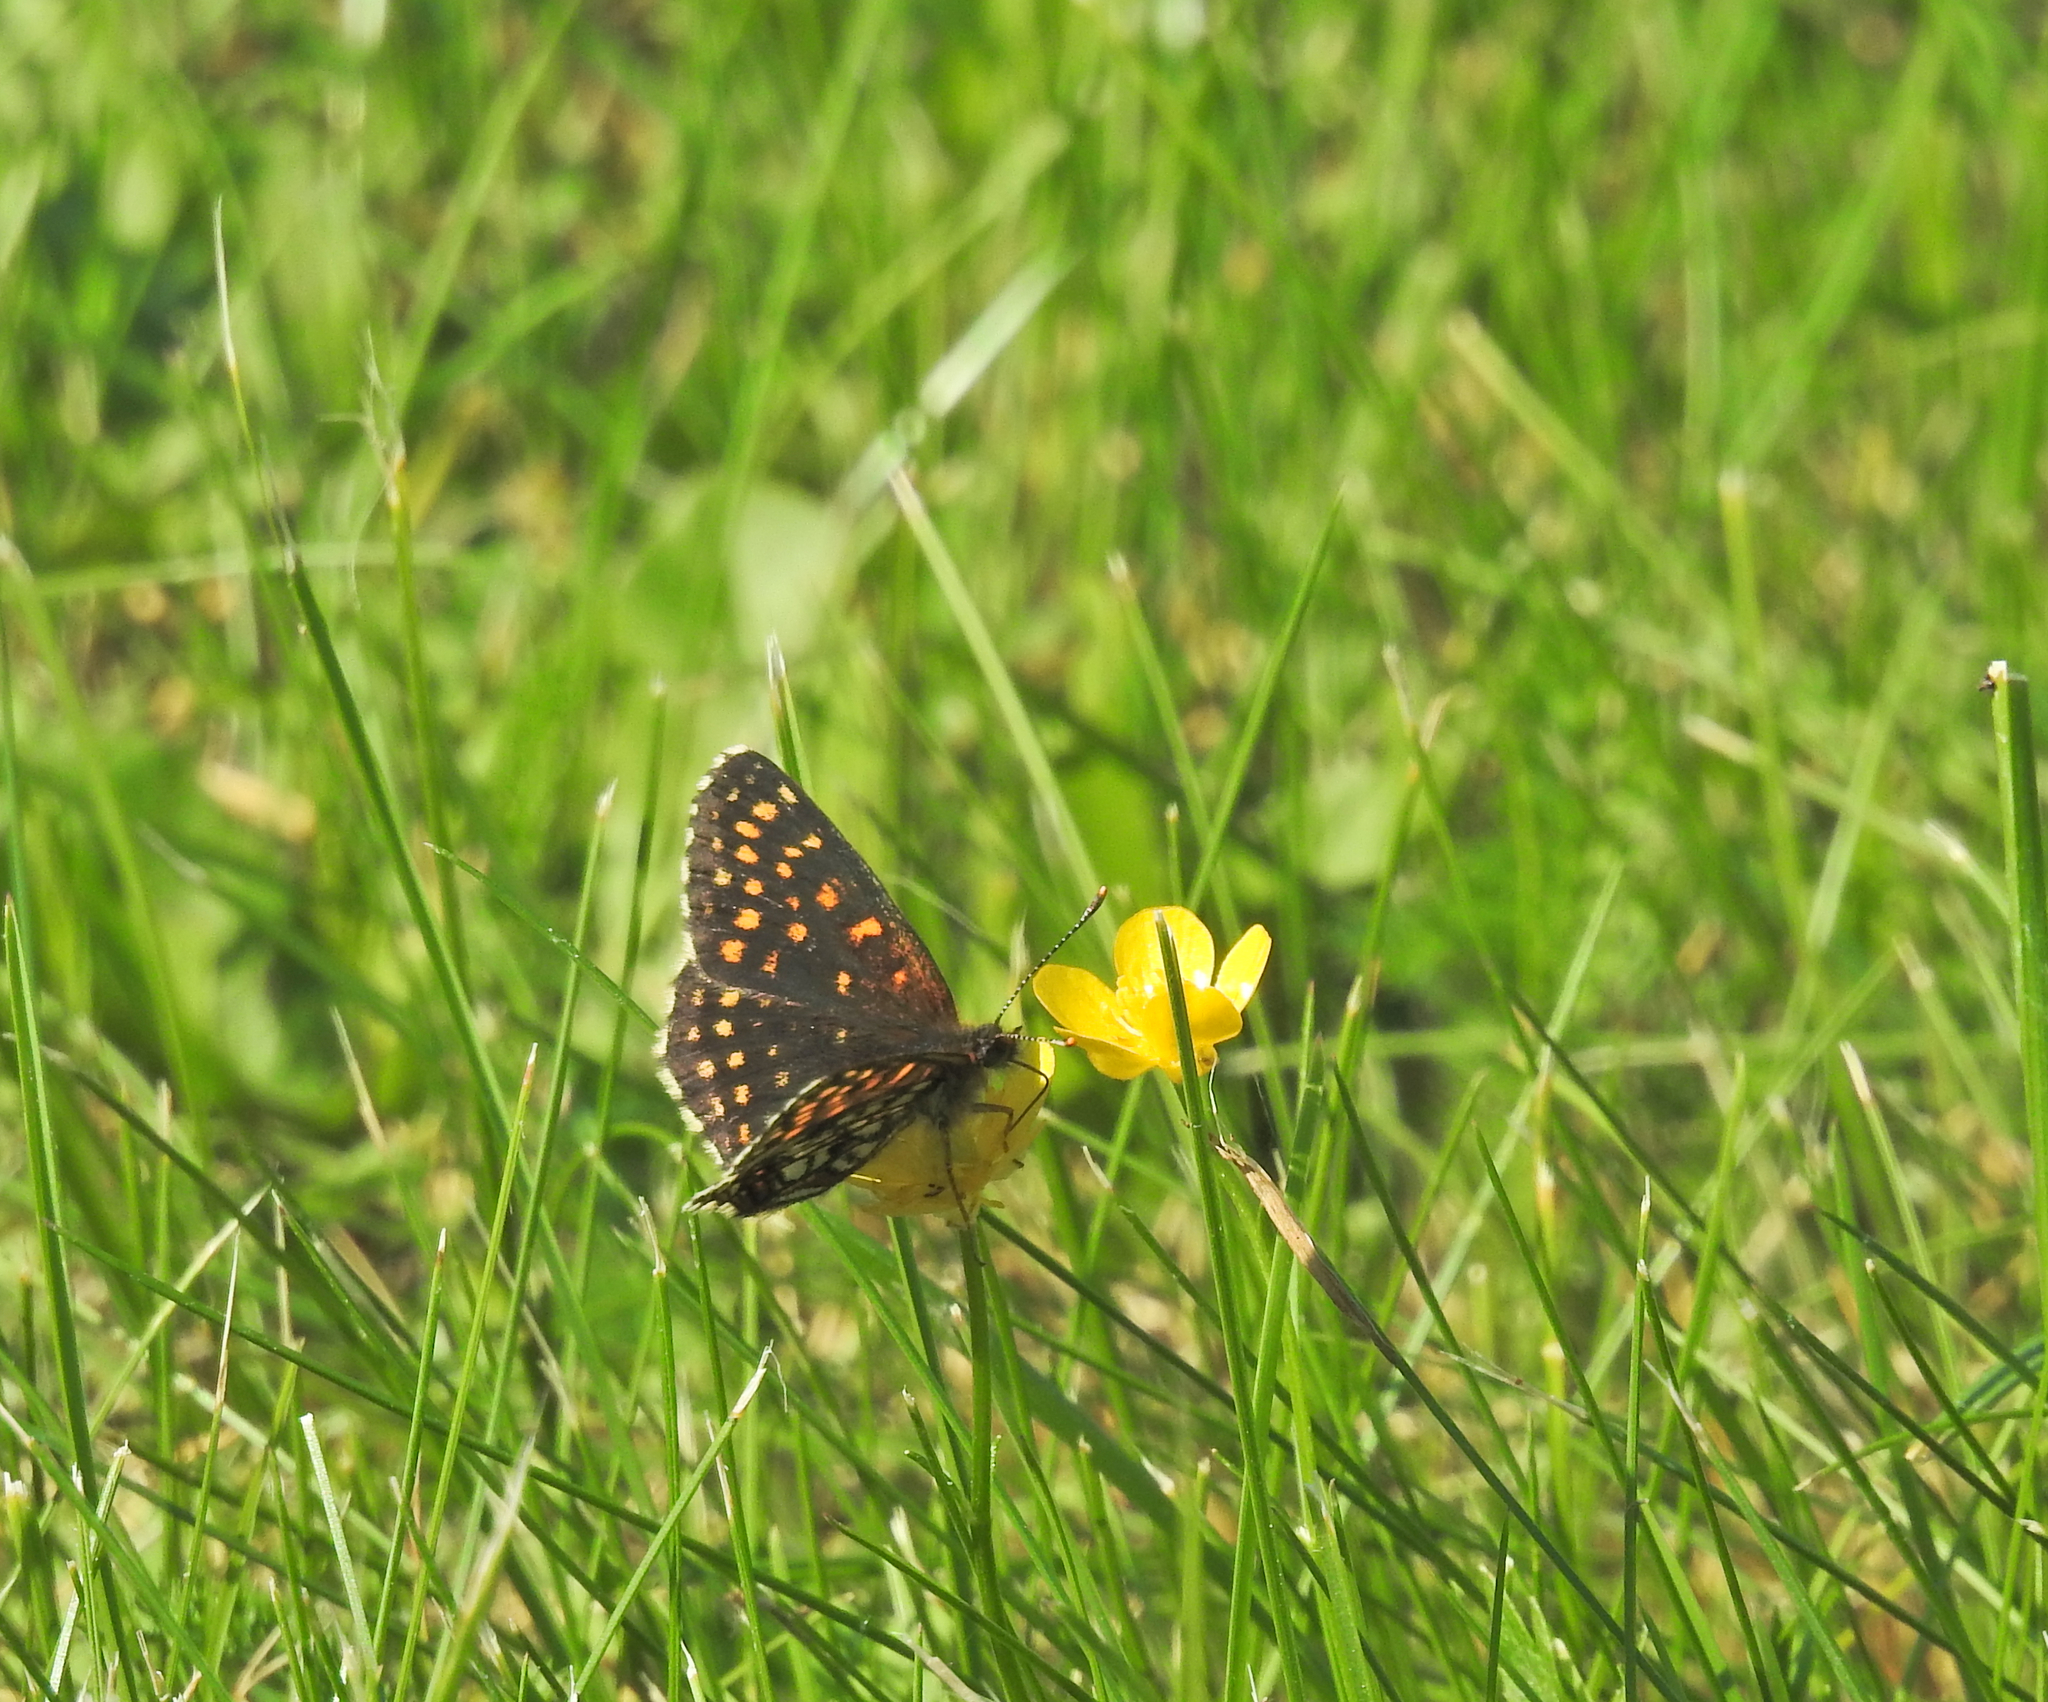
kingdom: Animalia
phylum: Arthropoda
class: Insecta
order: Lepidoptera
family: Nymphalidae
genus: Melitaea
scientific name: Melitaea diamina
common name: False heath fritillary
